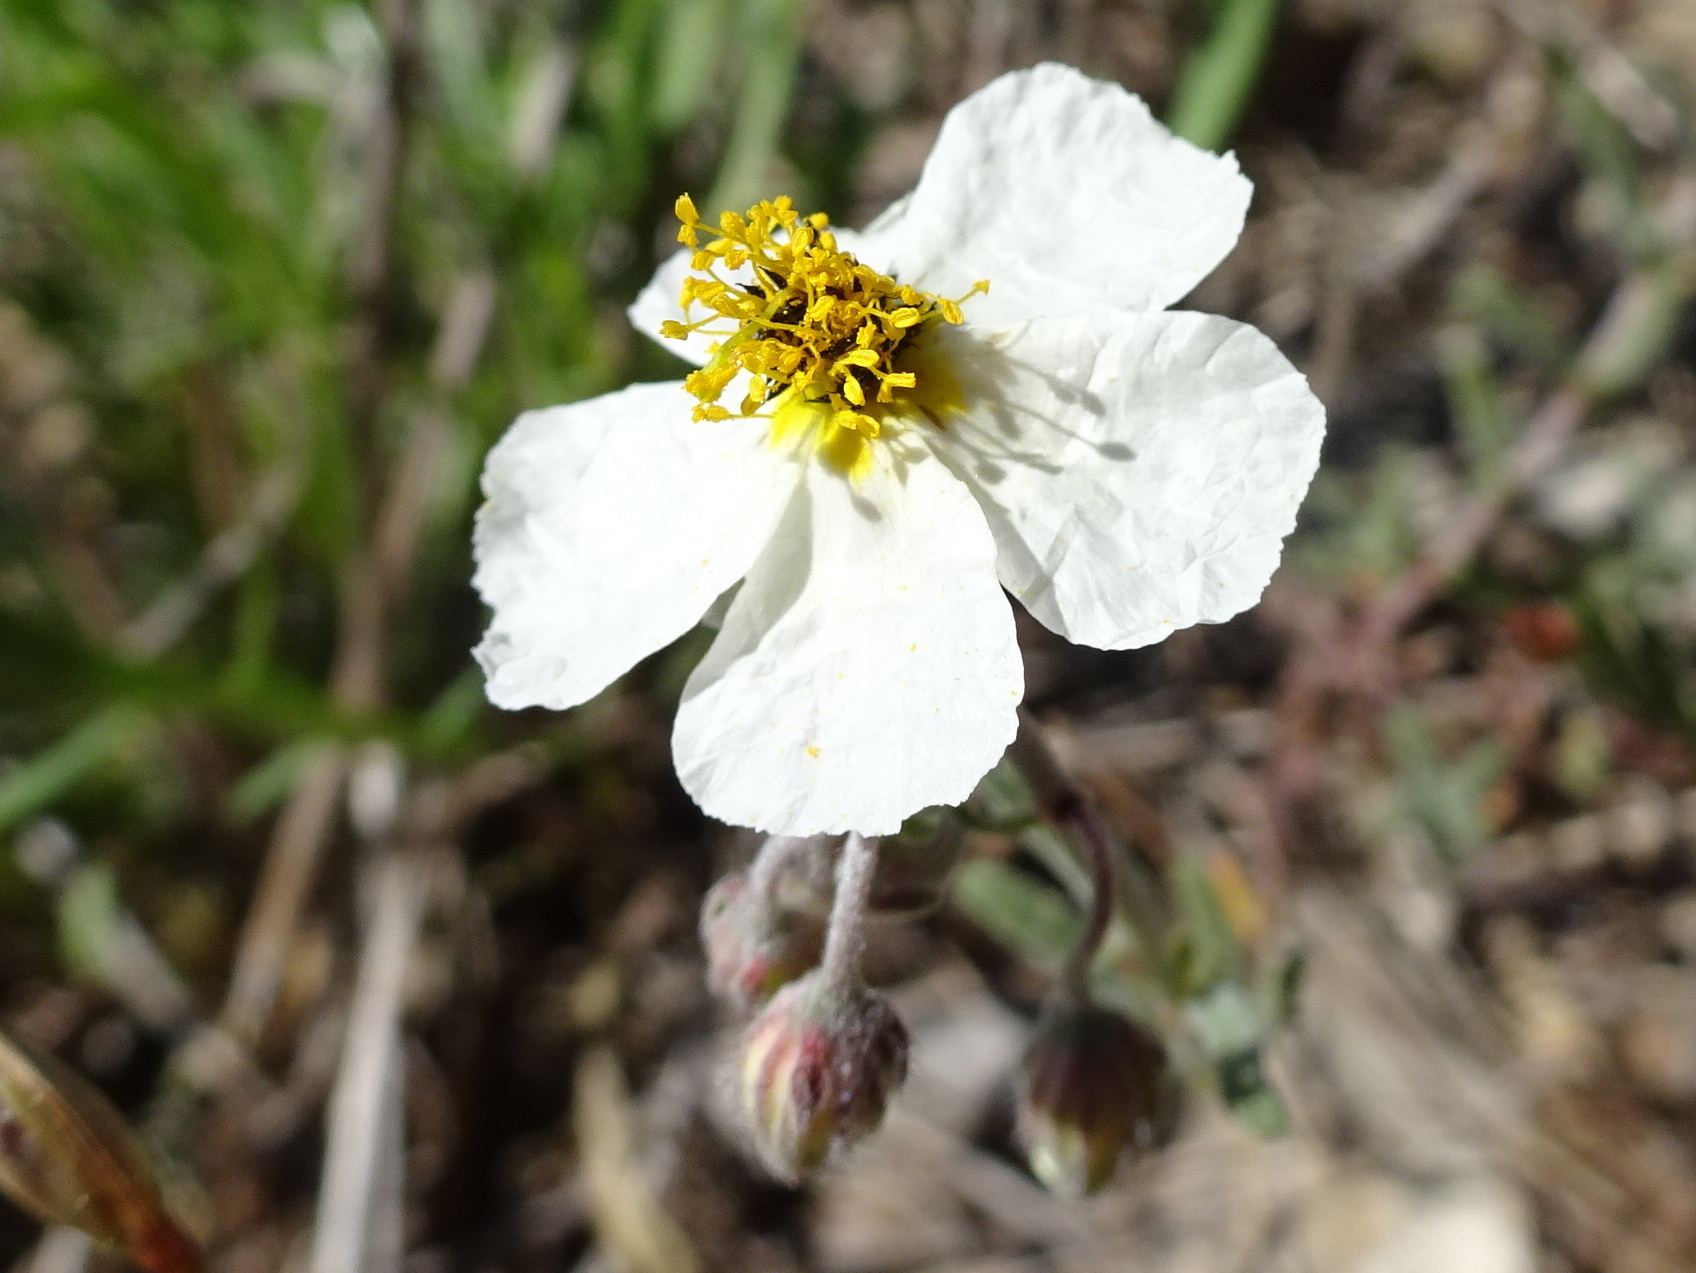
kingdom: Plantae
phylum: Tracheophyta
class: Magnoliopsida
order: Malvales
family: Cistaceae
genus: Helianthemum
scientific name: Helianthemum apenninum
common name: White rock-rose
